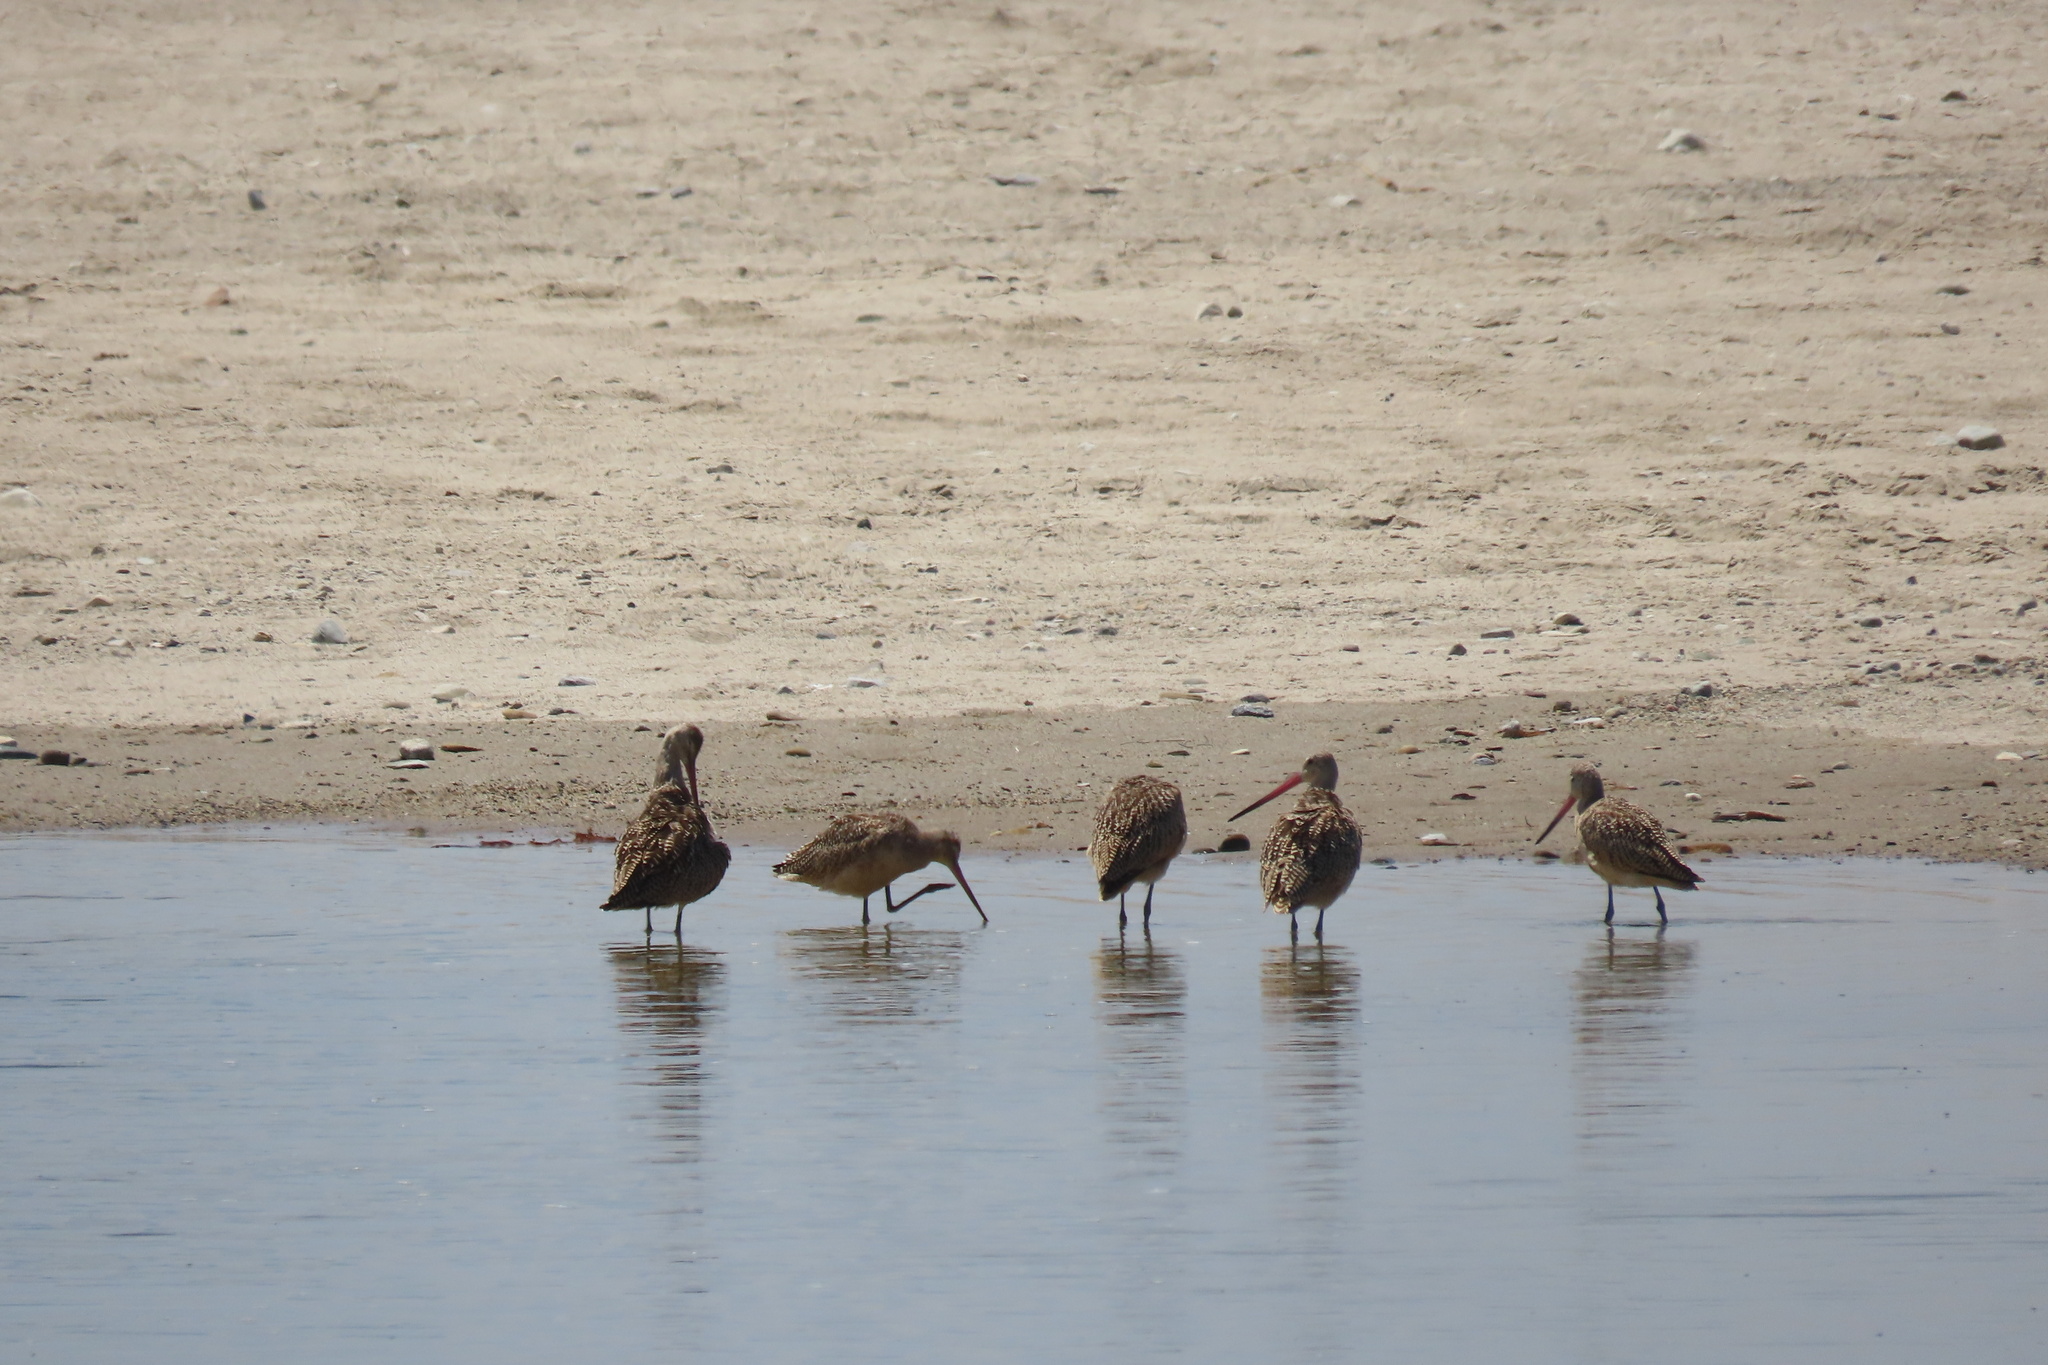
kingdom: Animalia
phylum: Chordata
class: Aves
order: Charadriiformes
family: Scolopacidae
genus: Limosa
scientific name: Limosa fedoa
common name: Marbled godwit
